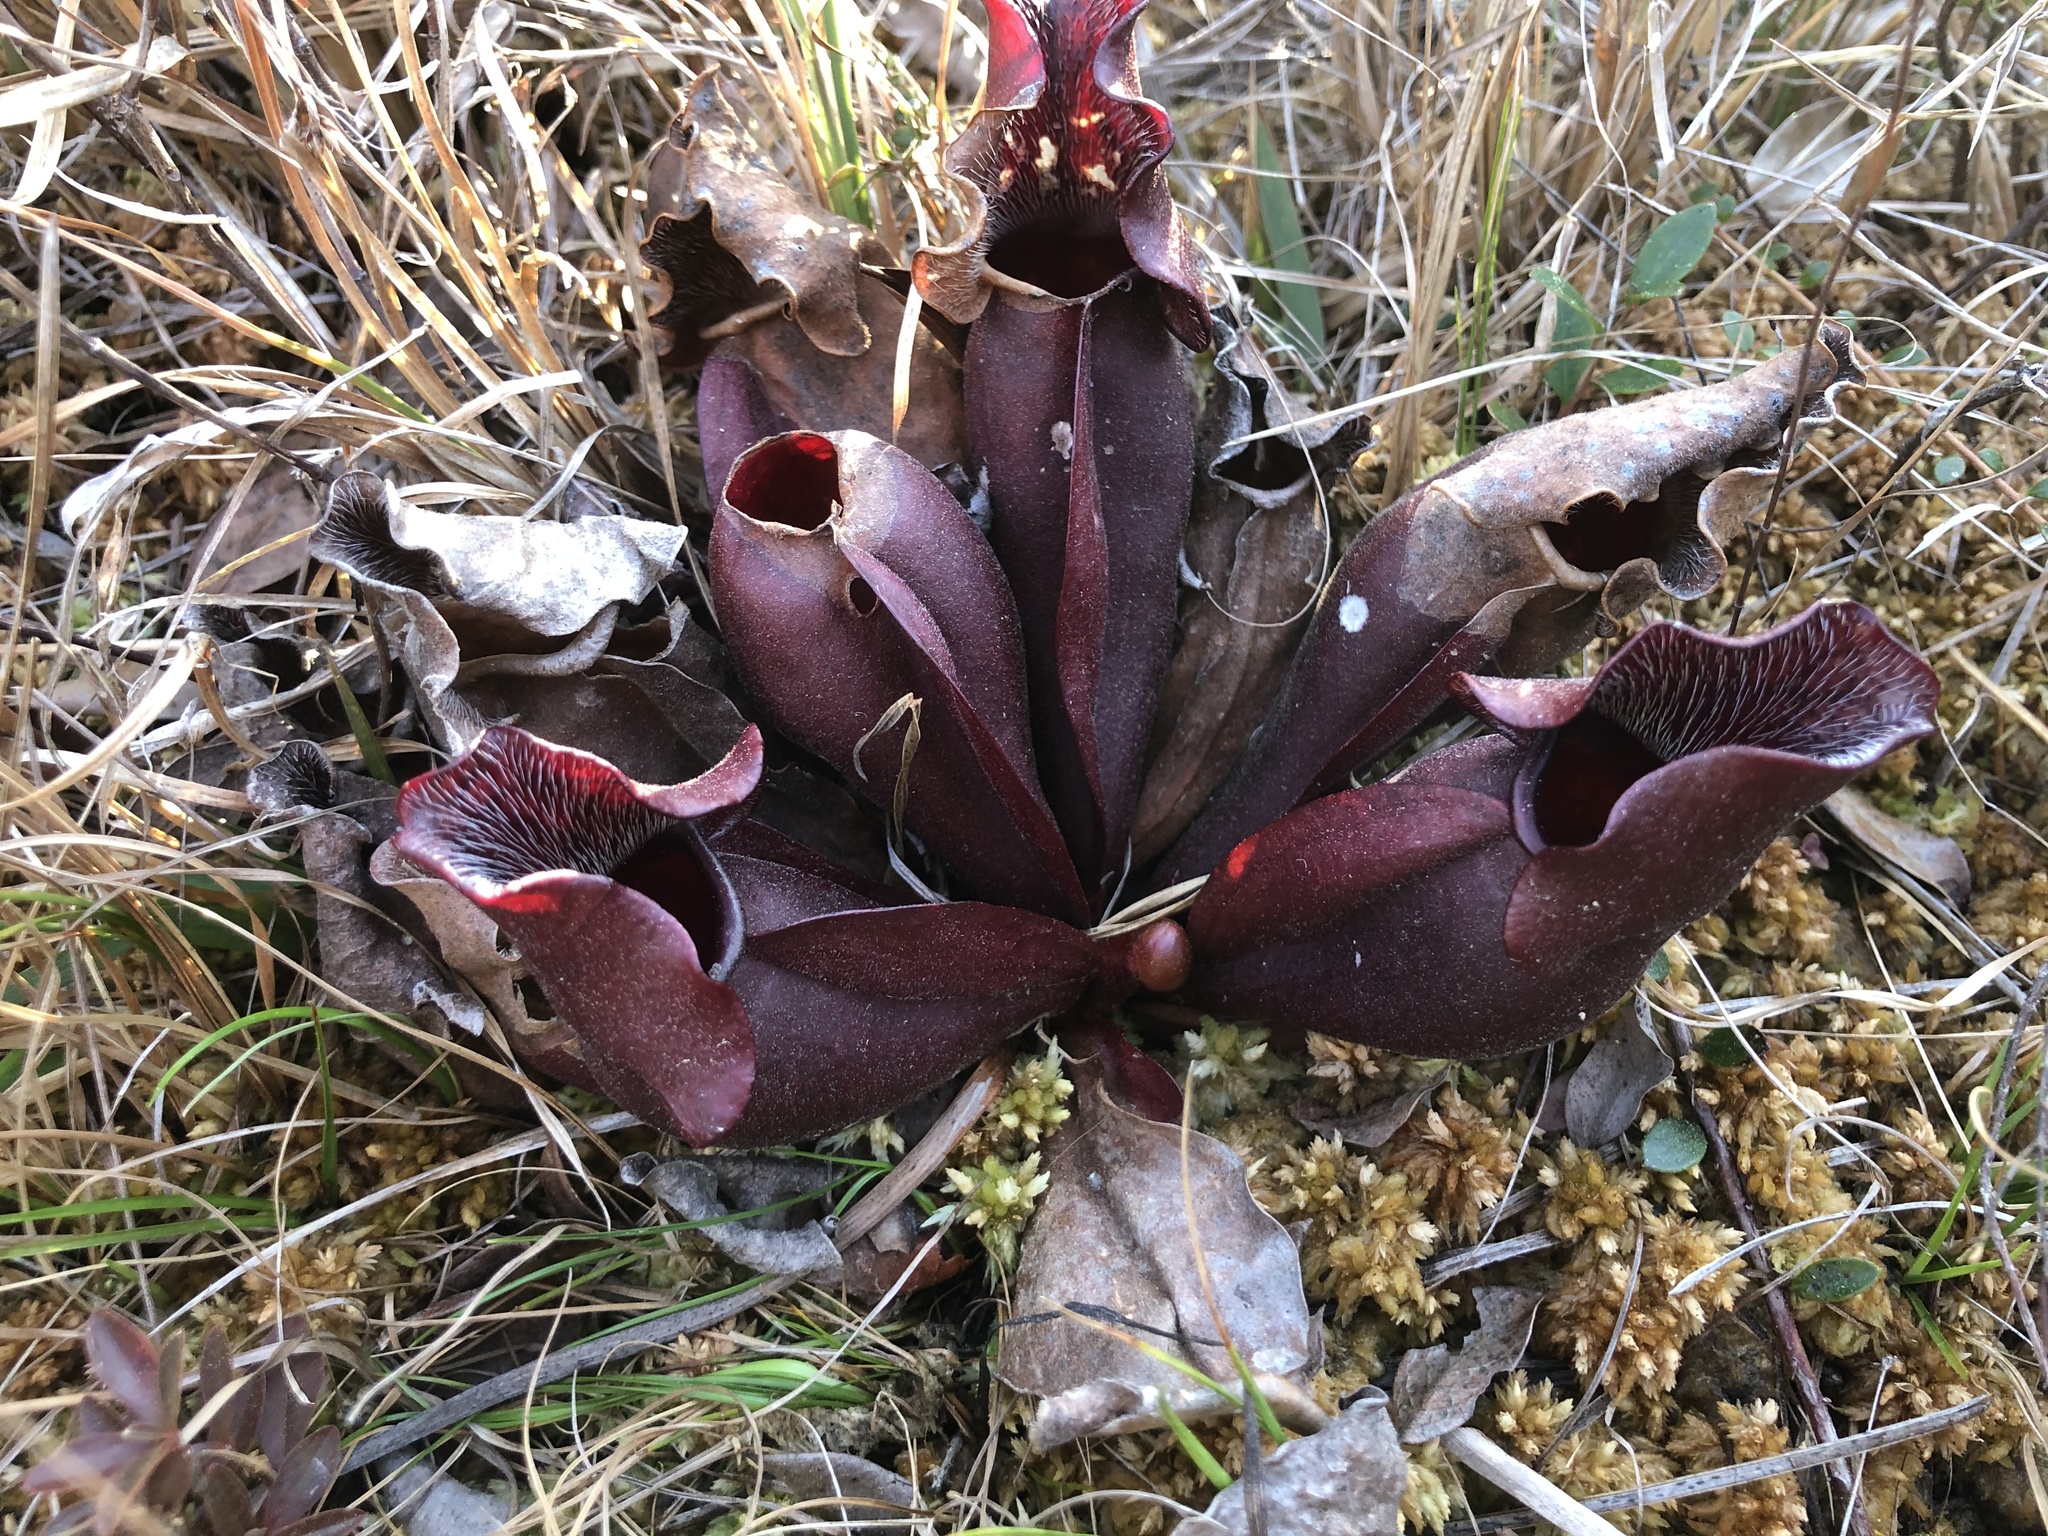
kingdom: Plantae
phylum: Tracheophyta
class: Magnoliopsida
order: Ericales
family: Sarraceniaceae
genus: Sarracenia
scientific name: Sarracenia purpurea
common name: Pitcherplant
